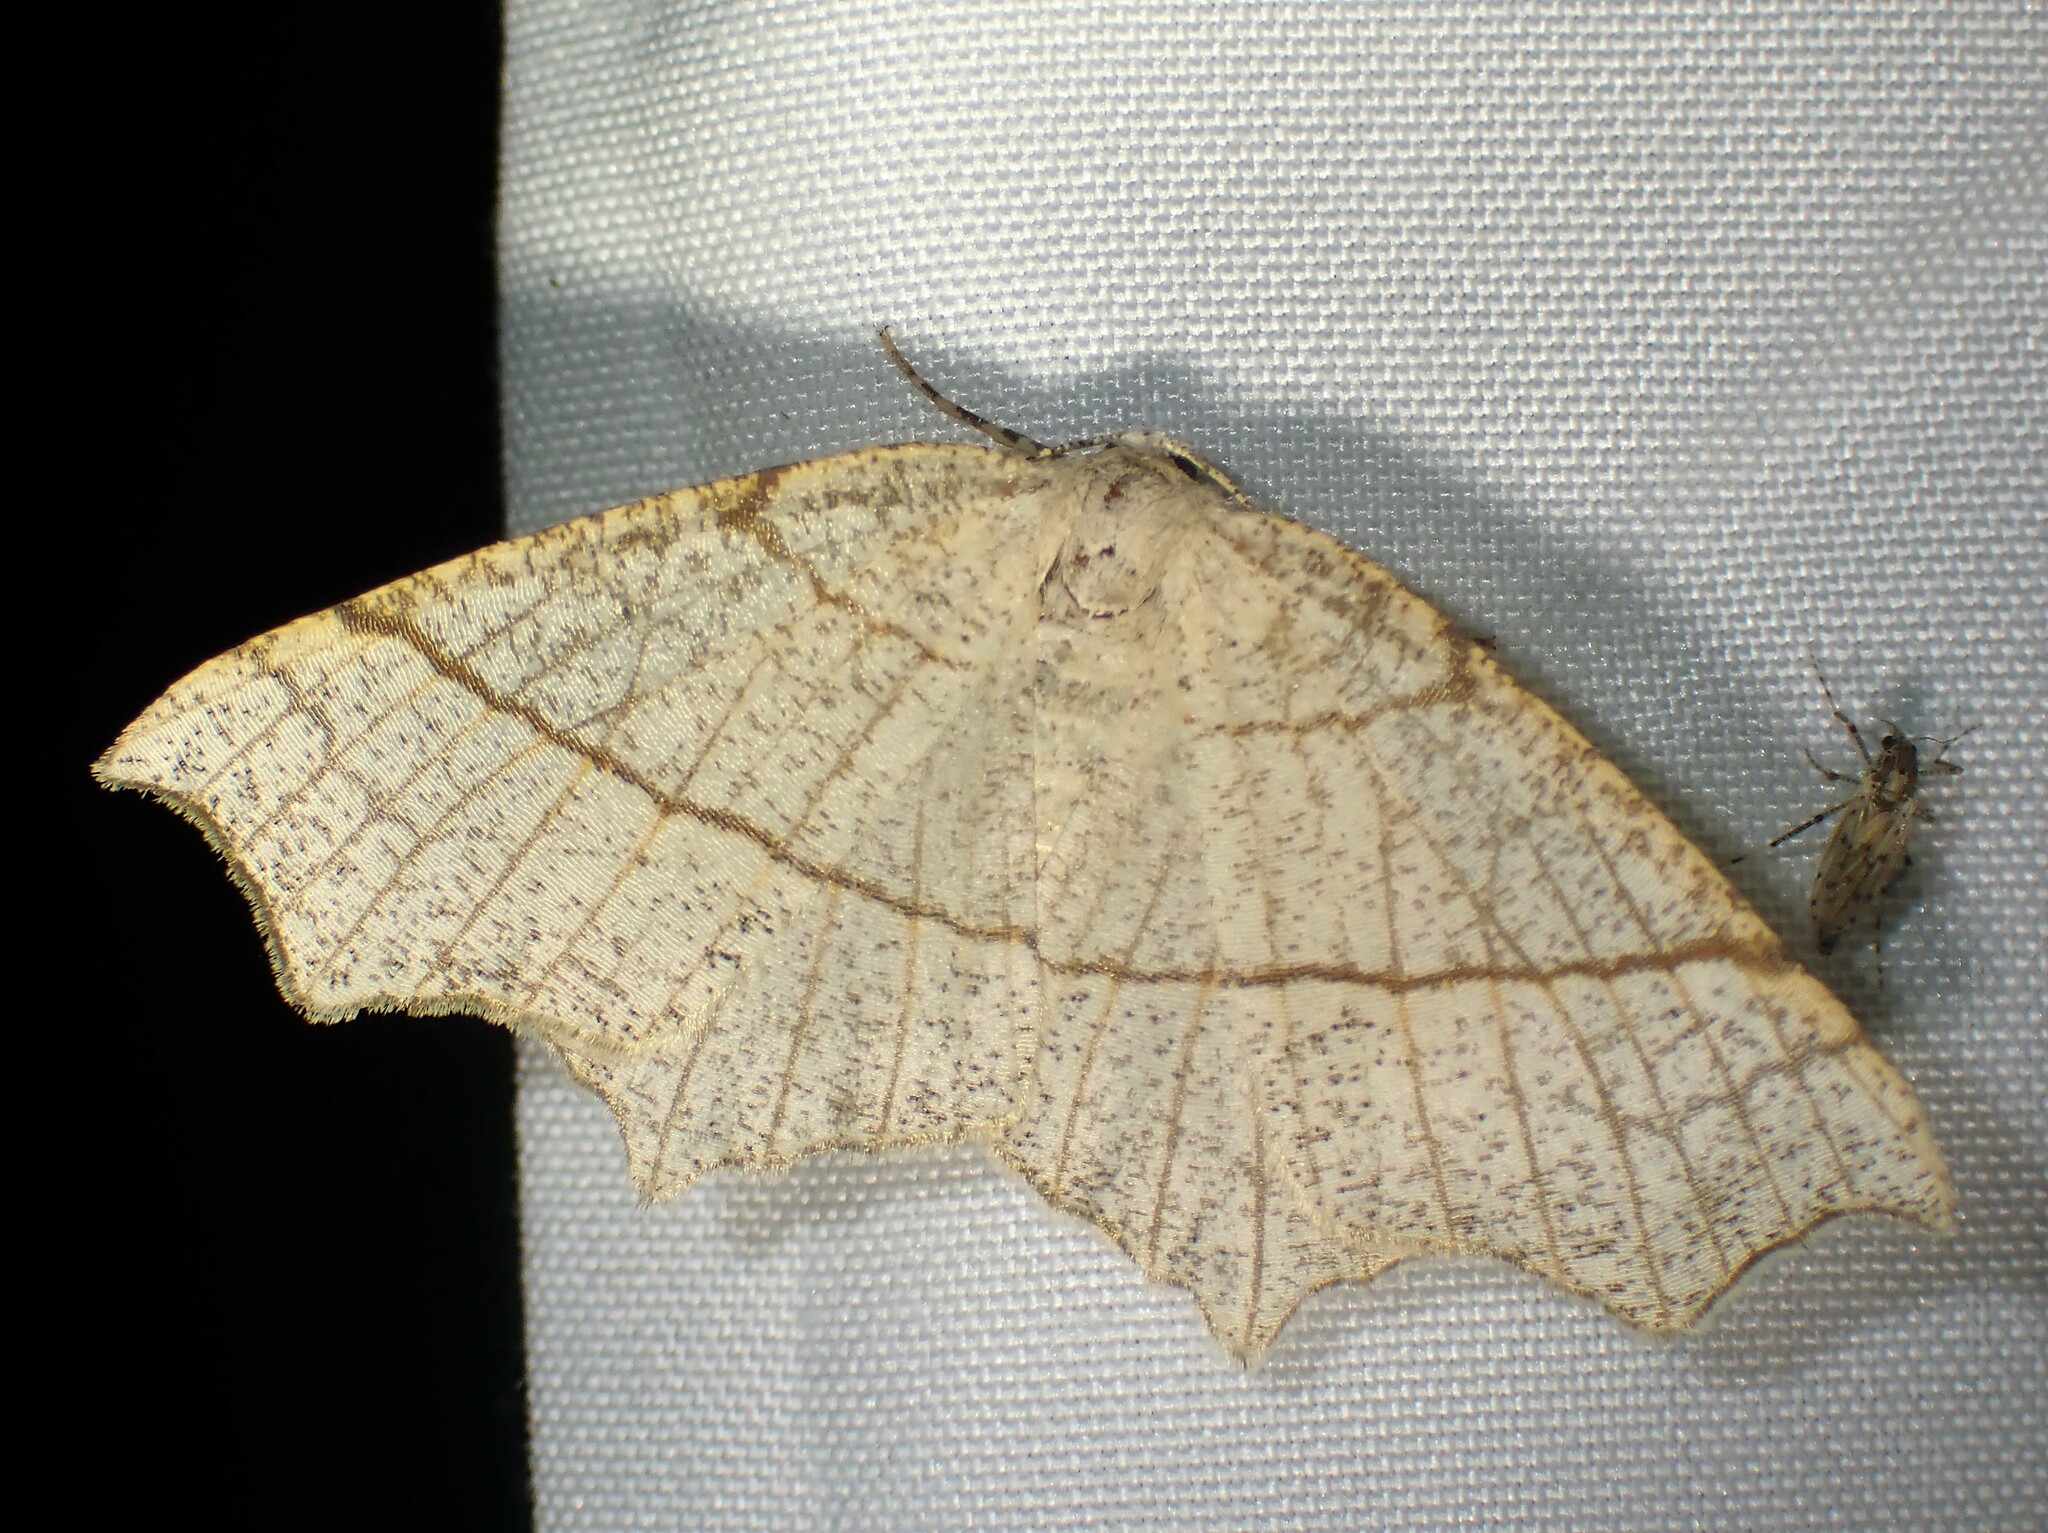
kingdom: Animalia
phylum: Arthropoda
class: Insecta
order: Lepidoptera
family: Geometridae
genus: Besma
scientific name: Besma quercivoraria
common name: Oak besma
